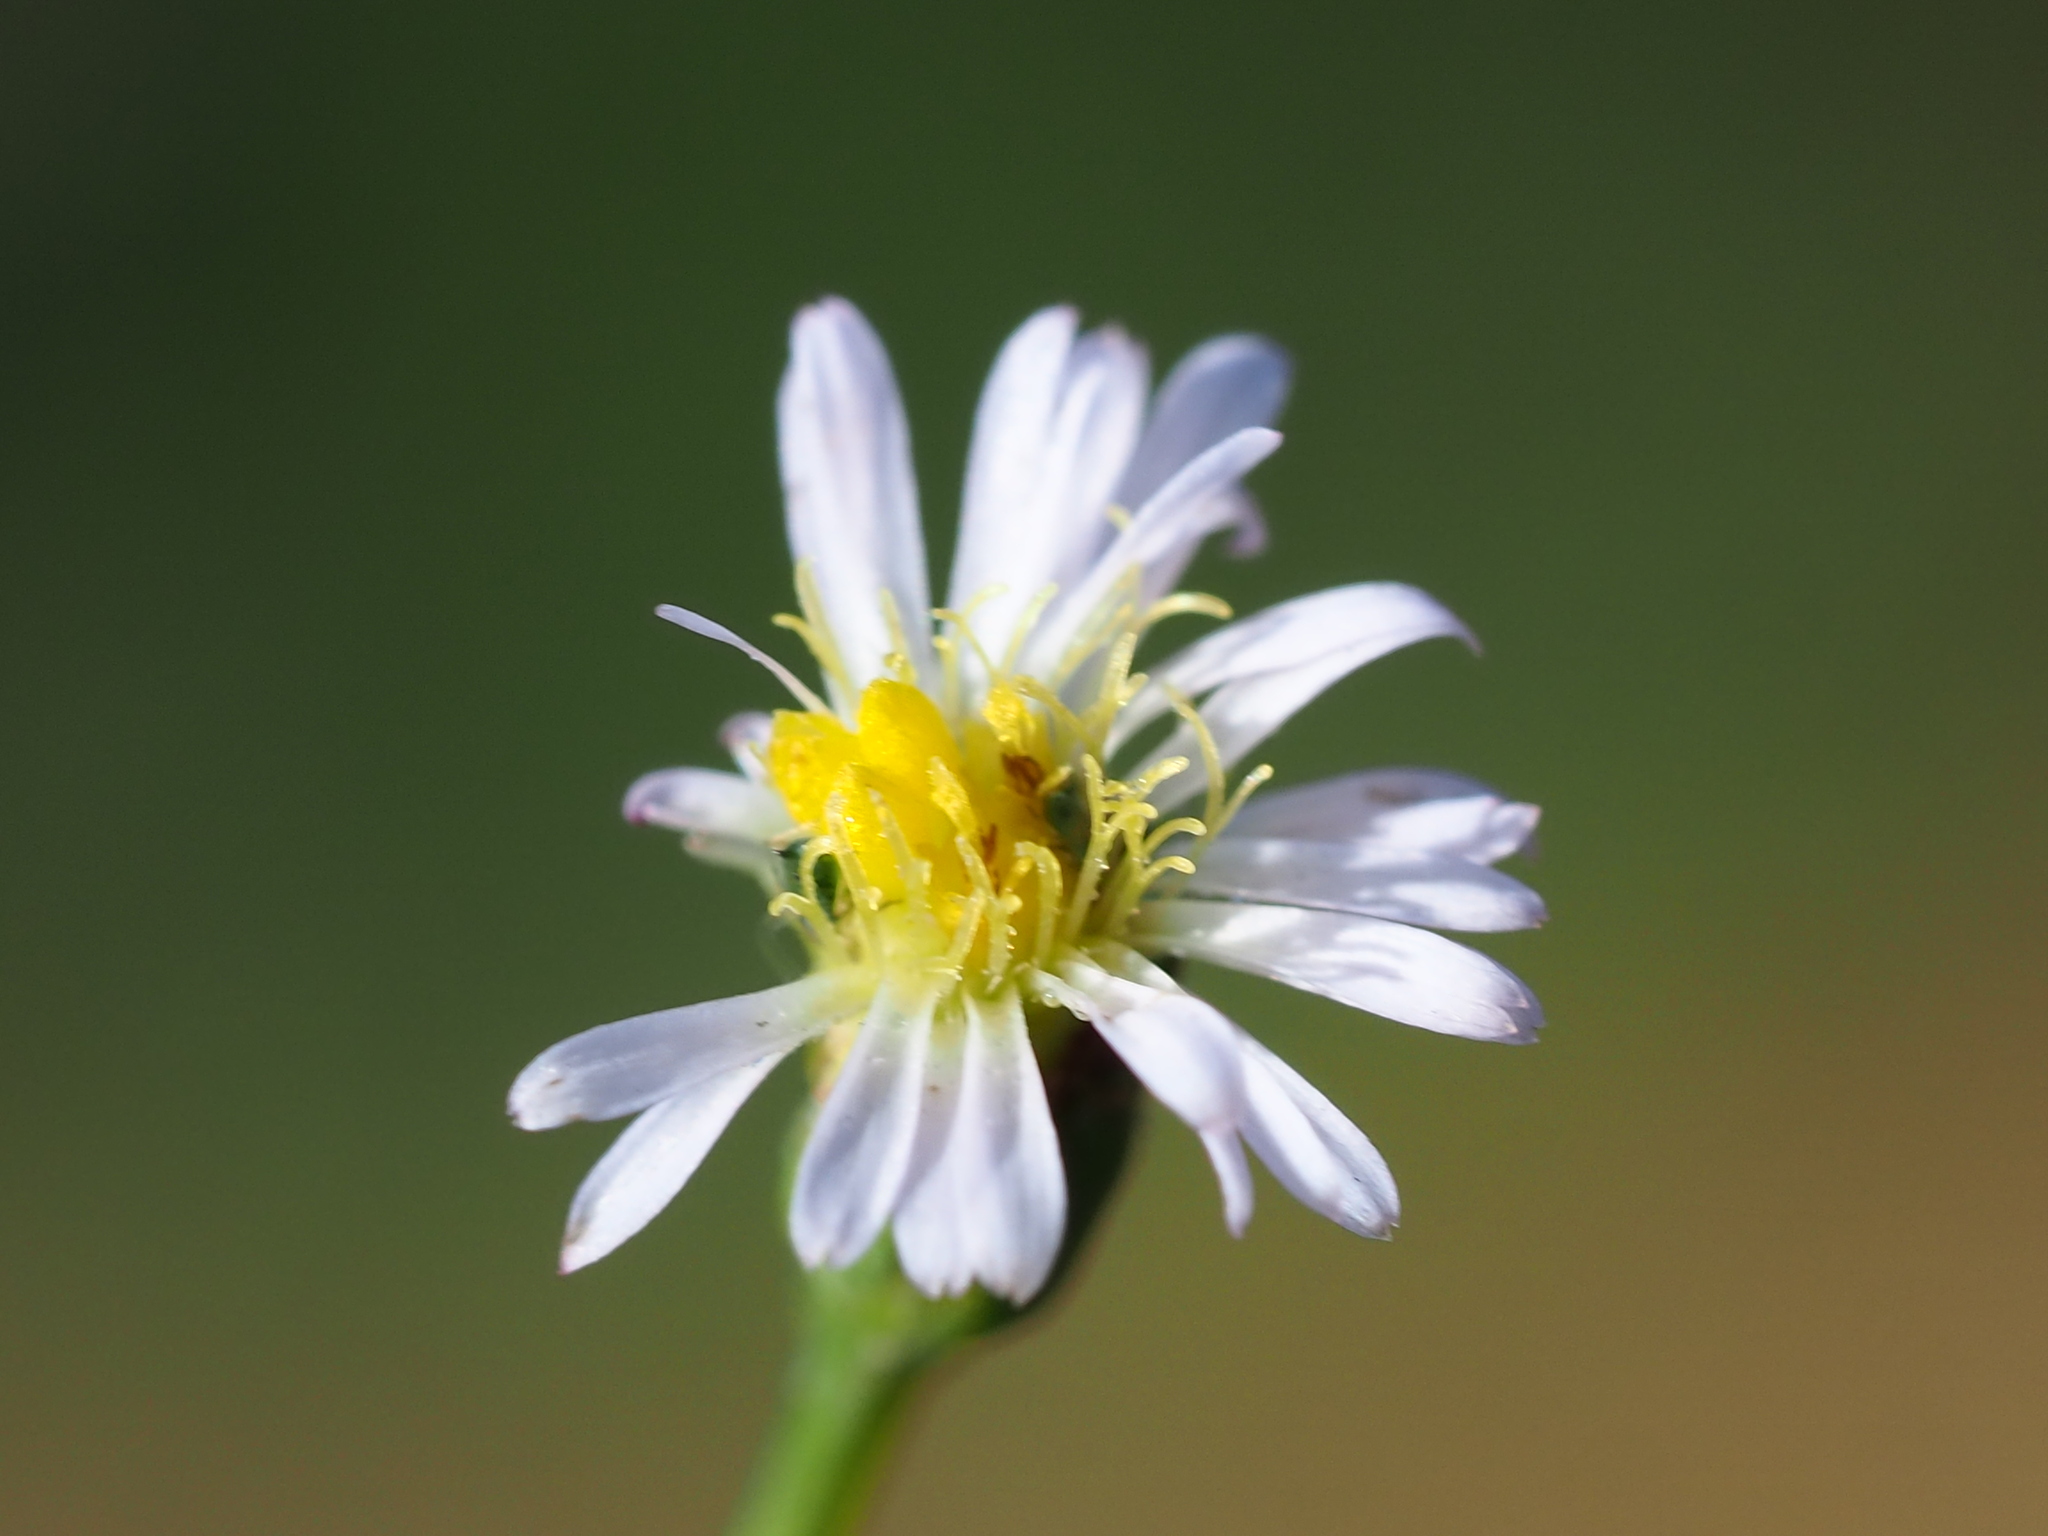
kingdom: Plantae
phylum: Tracheophyta
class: Magnoliopsida
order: Asterales
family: Asteraceae
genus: Symphyotrichum
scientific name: Symphyotrichum subulatum
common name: Annual saltmarsh aster
